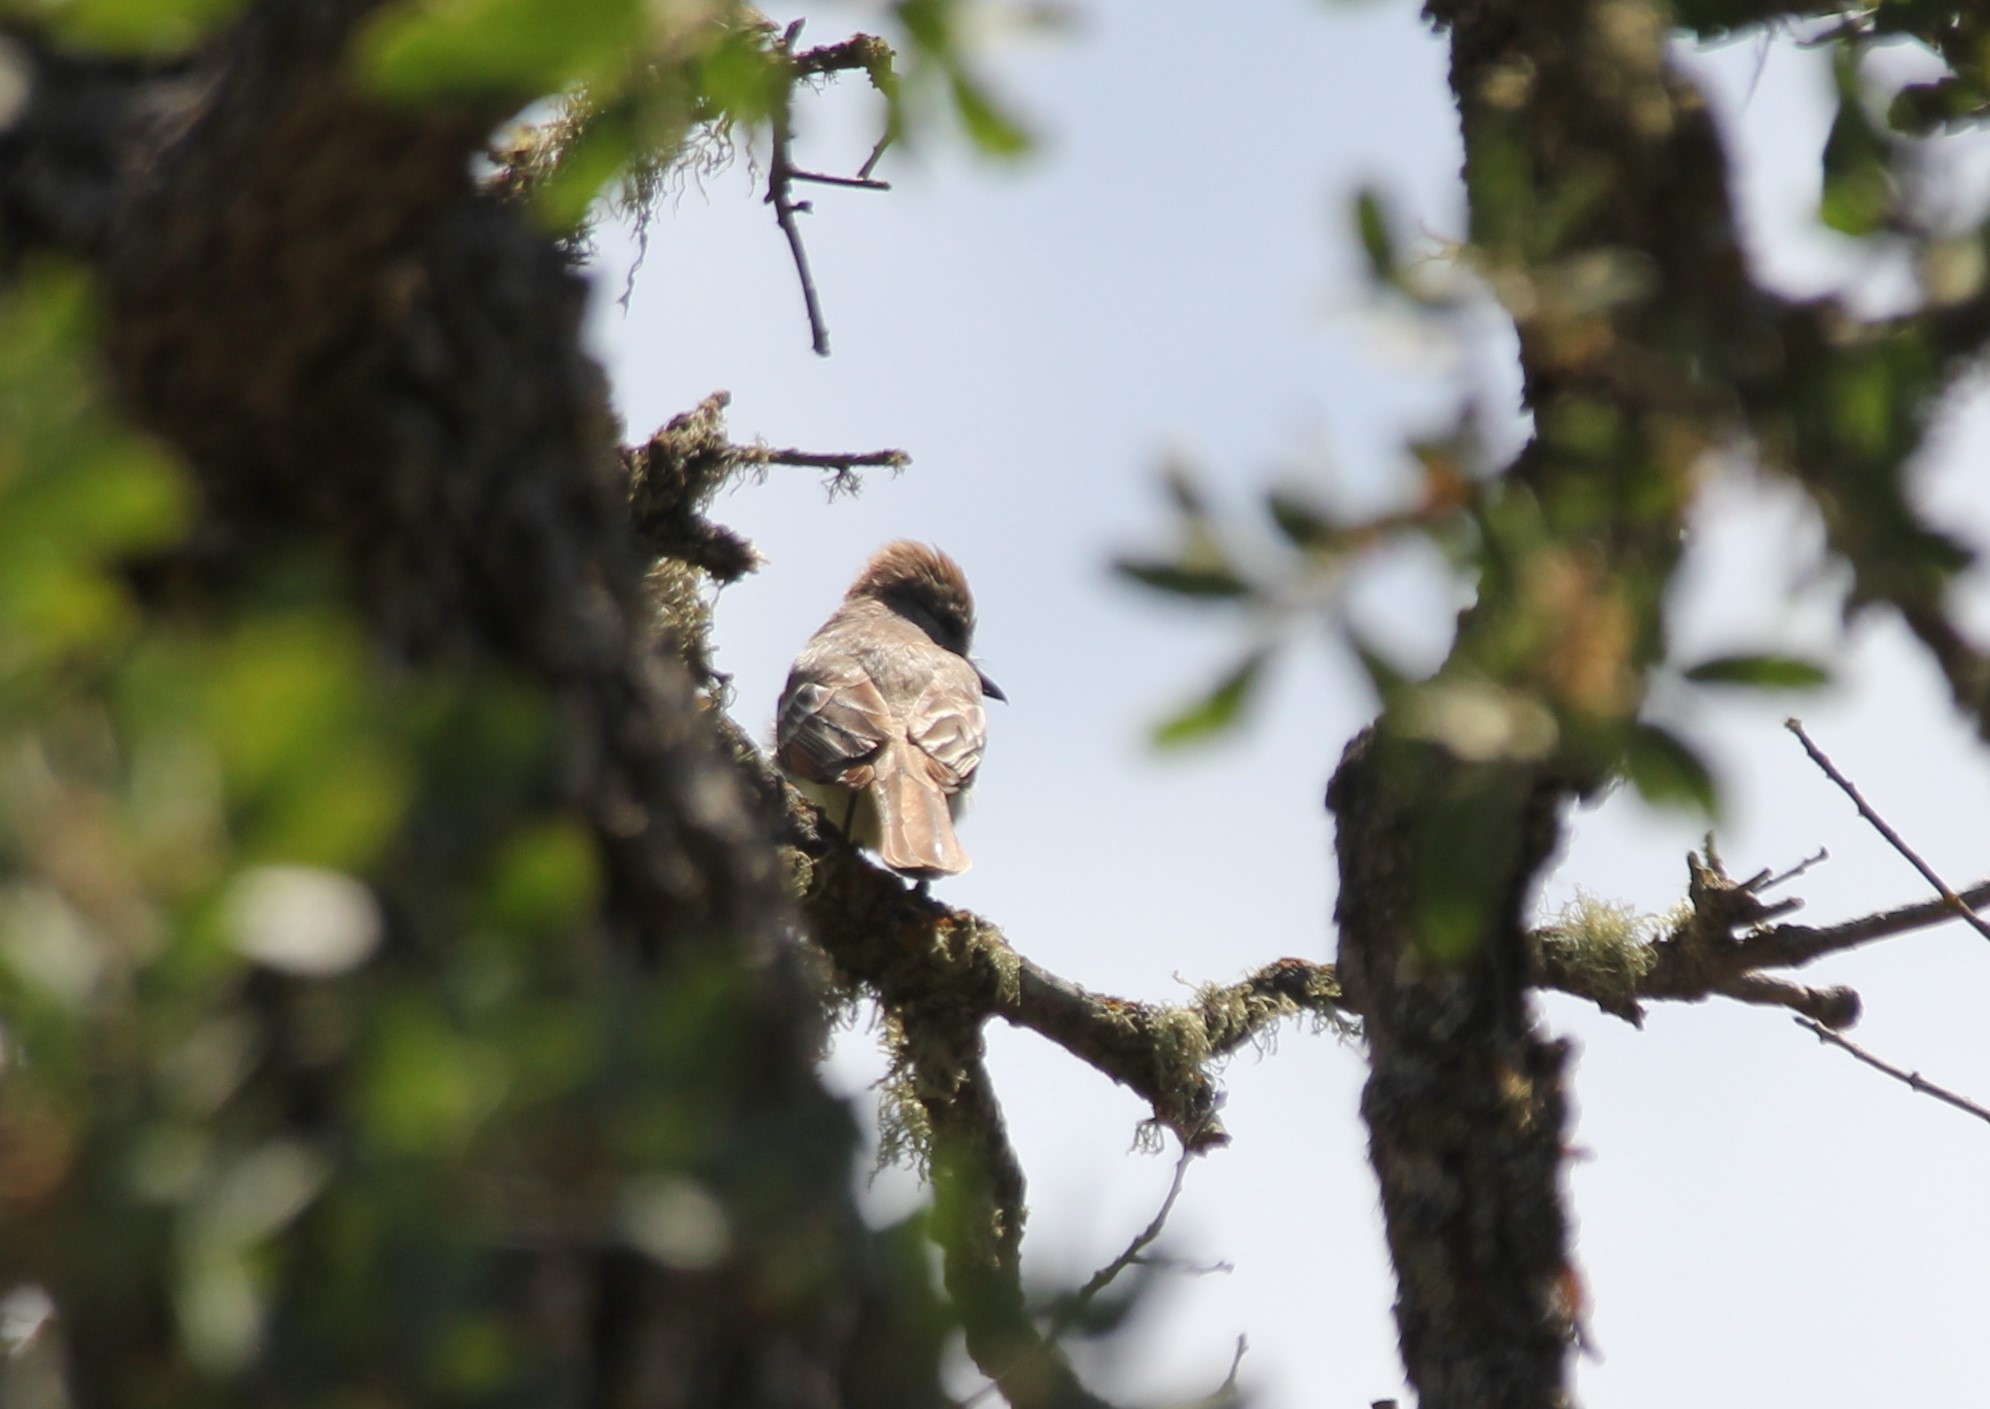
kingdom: Animalia
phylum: Chordata
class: Aves
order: Passeriformes
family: Tyrannidae
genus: Myiarchus
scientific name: Myiarchus cinerascens
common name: Ash-throated flycatcher
